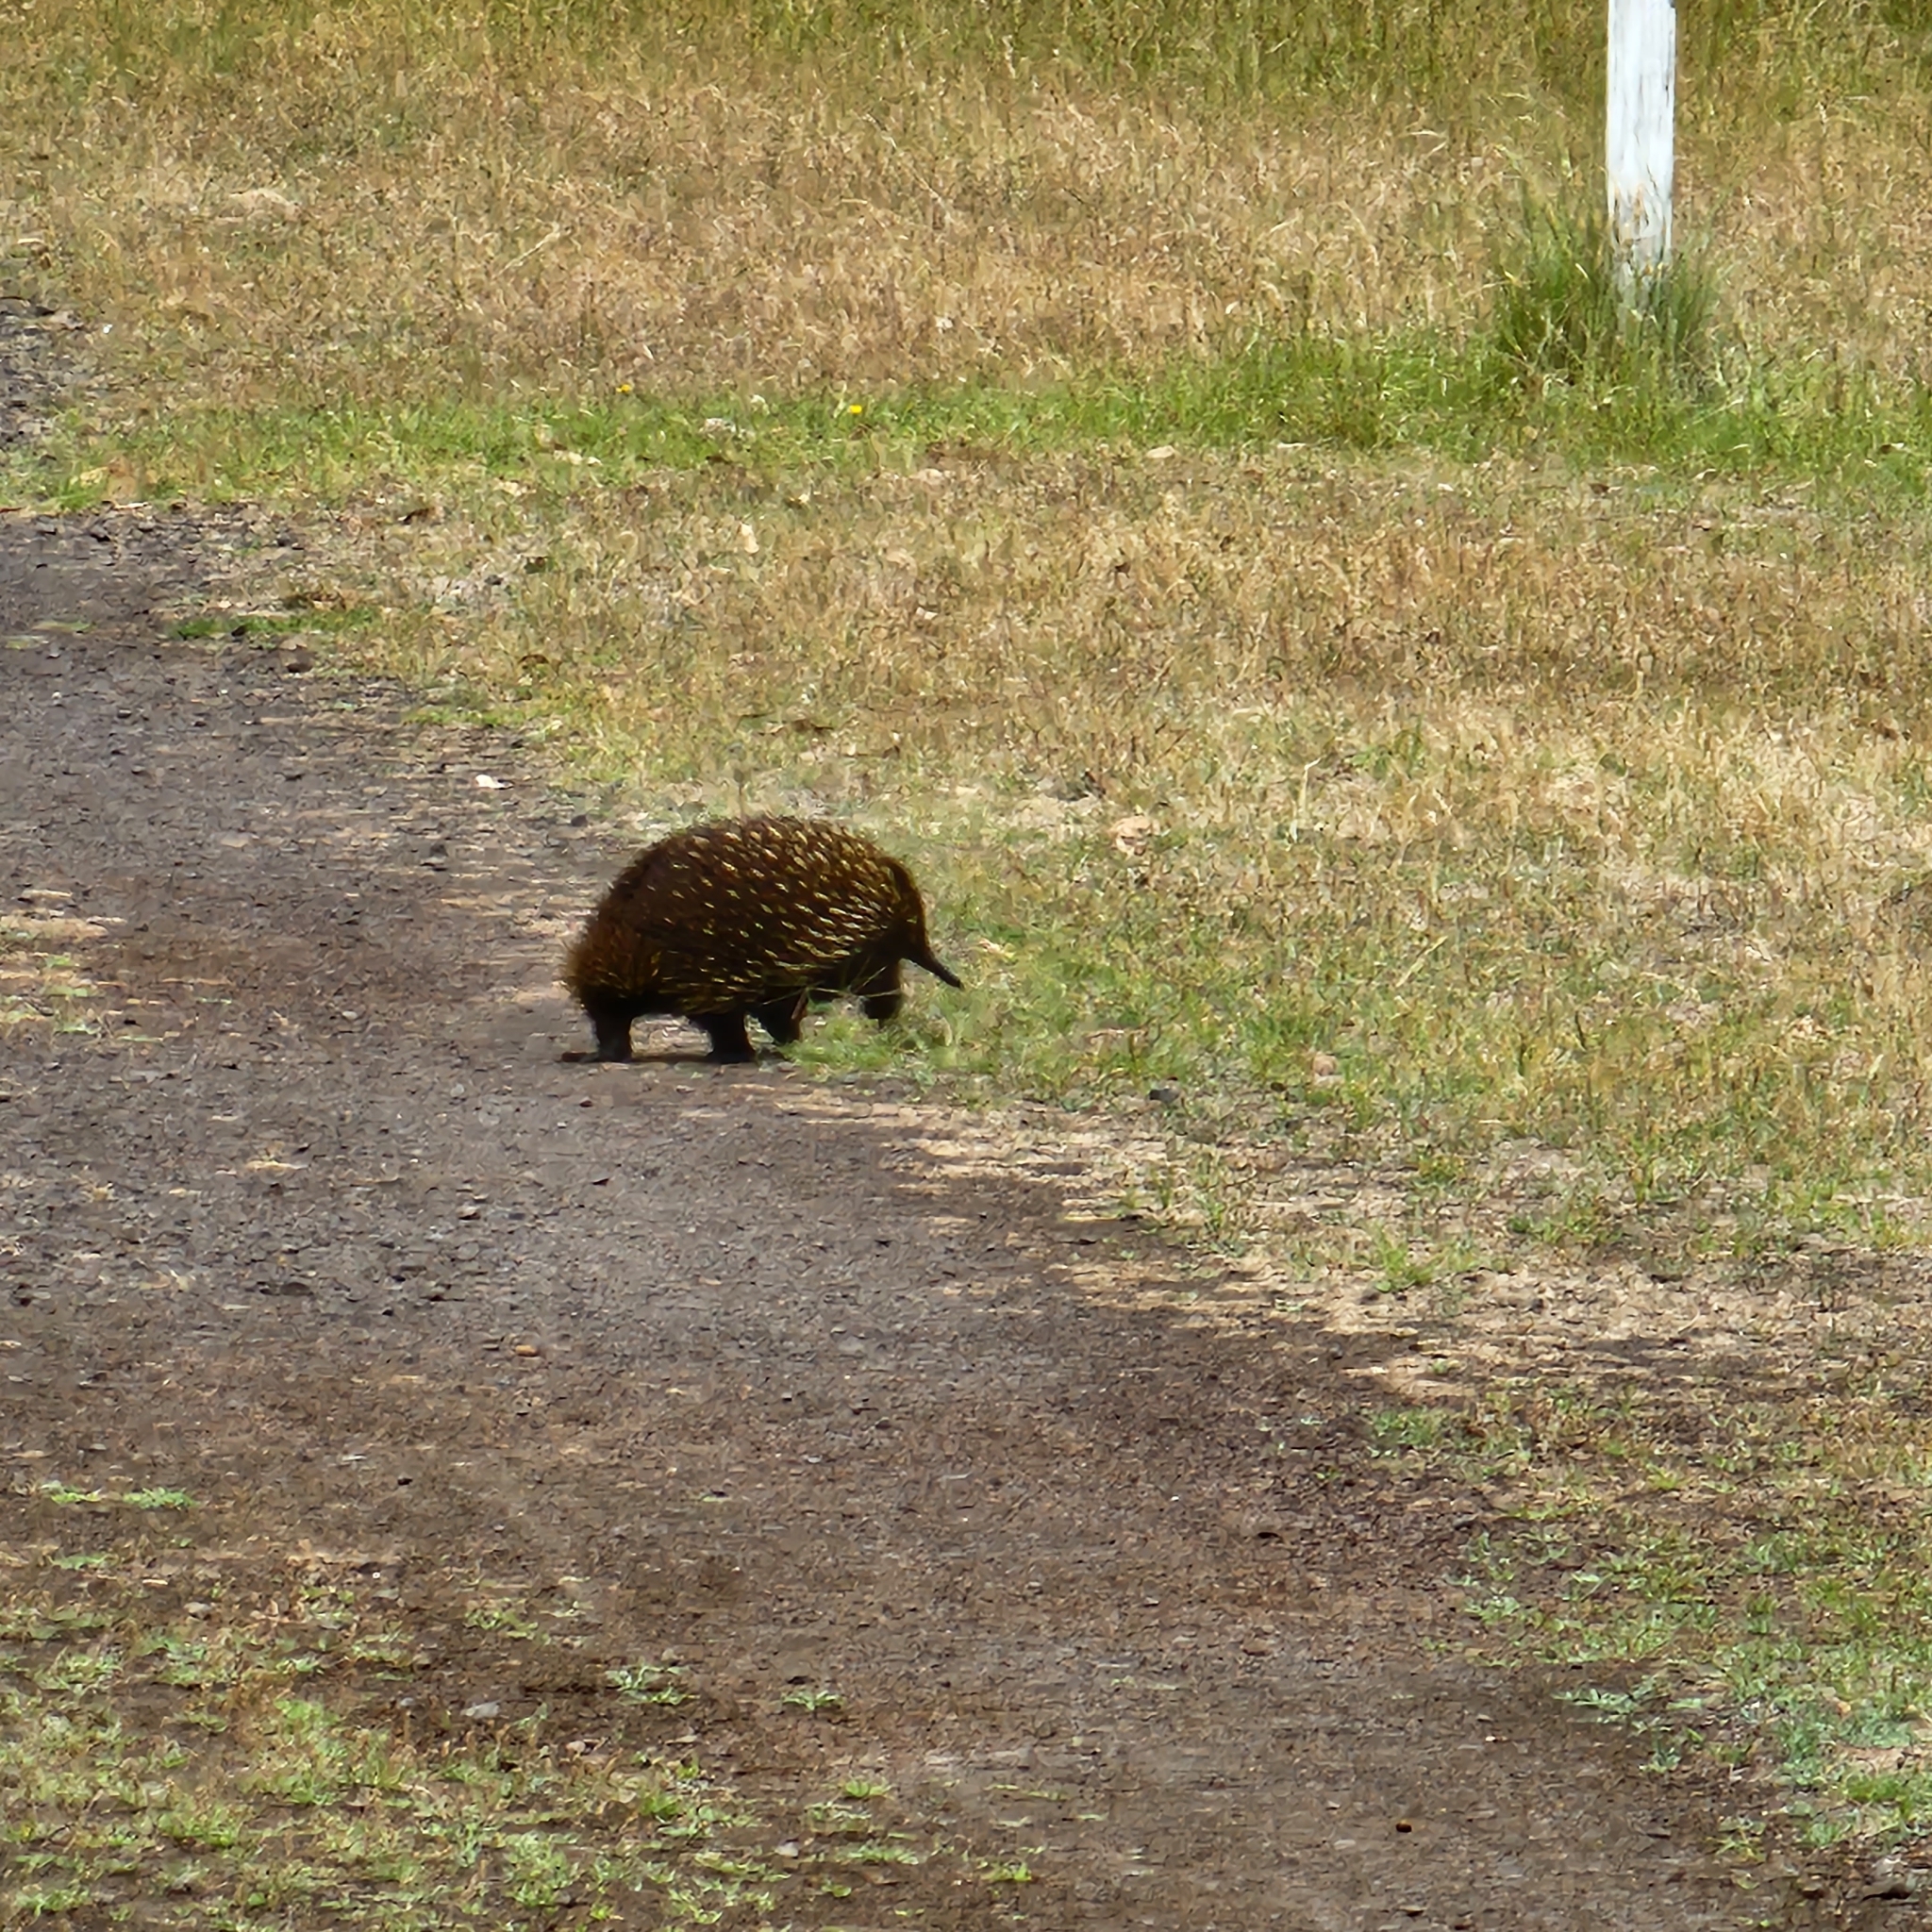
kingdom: Animalia
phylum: Chordata
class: Mammalia
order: Monotremata
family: Tachyglossidae
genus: Tachyglossus
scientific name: Tachyglossus aculeatus
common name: Short-beaked echidna
